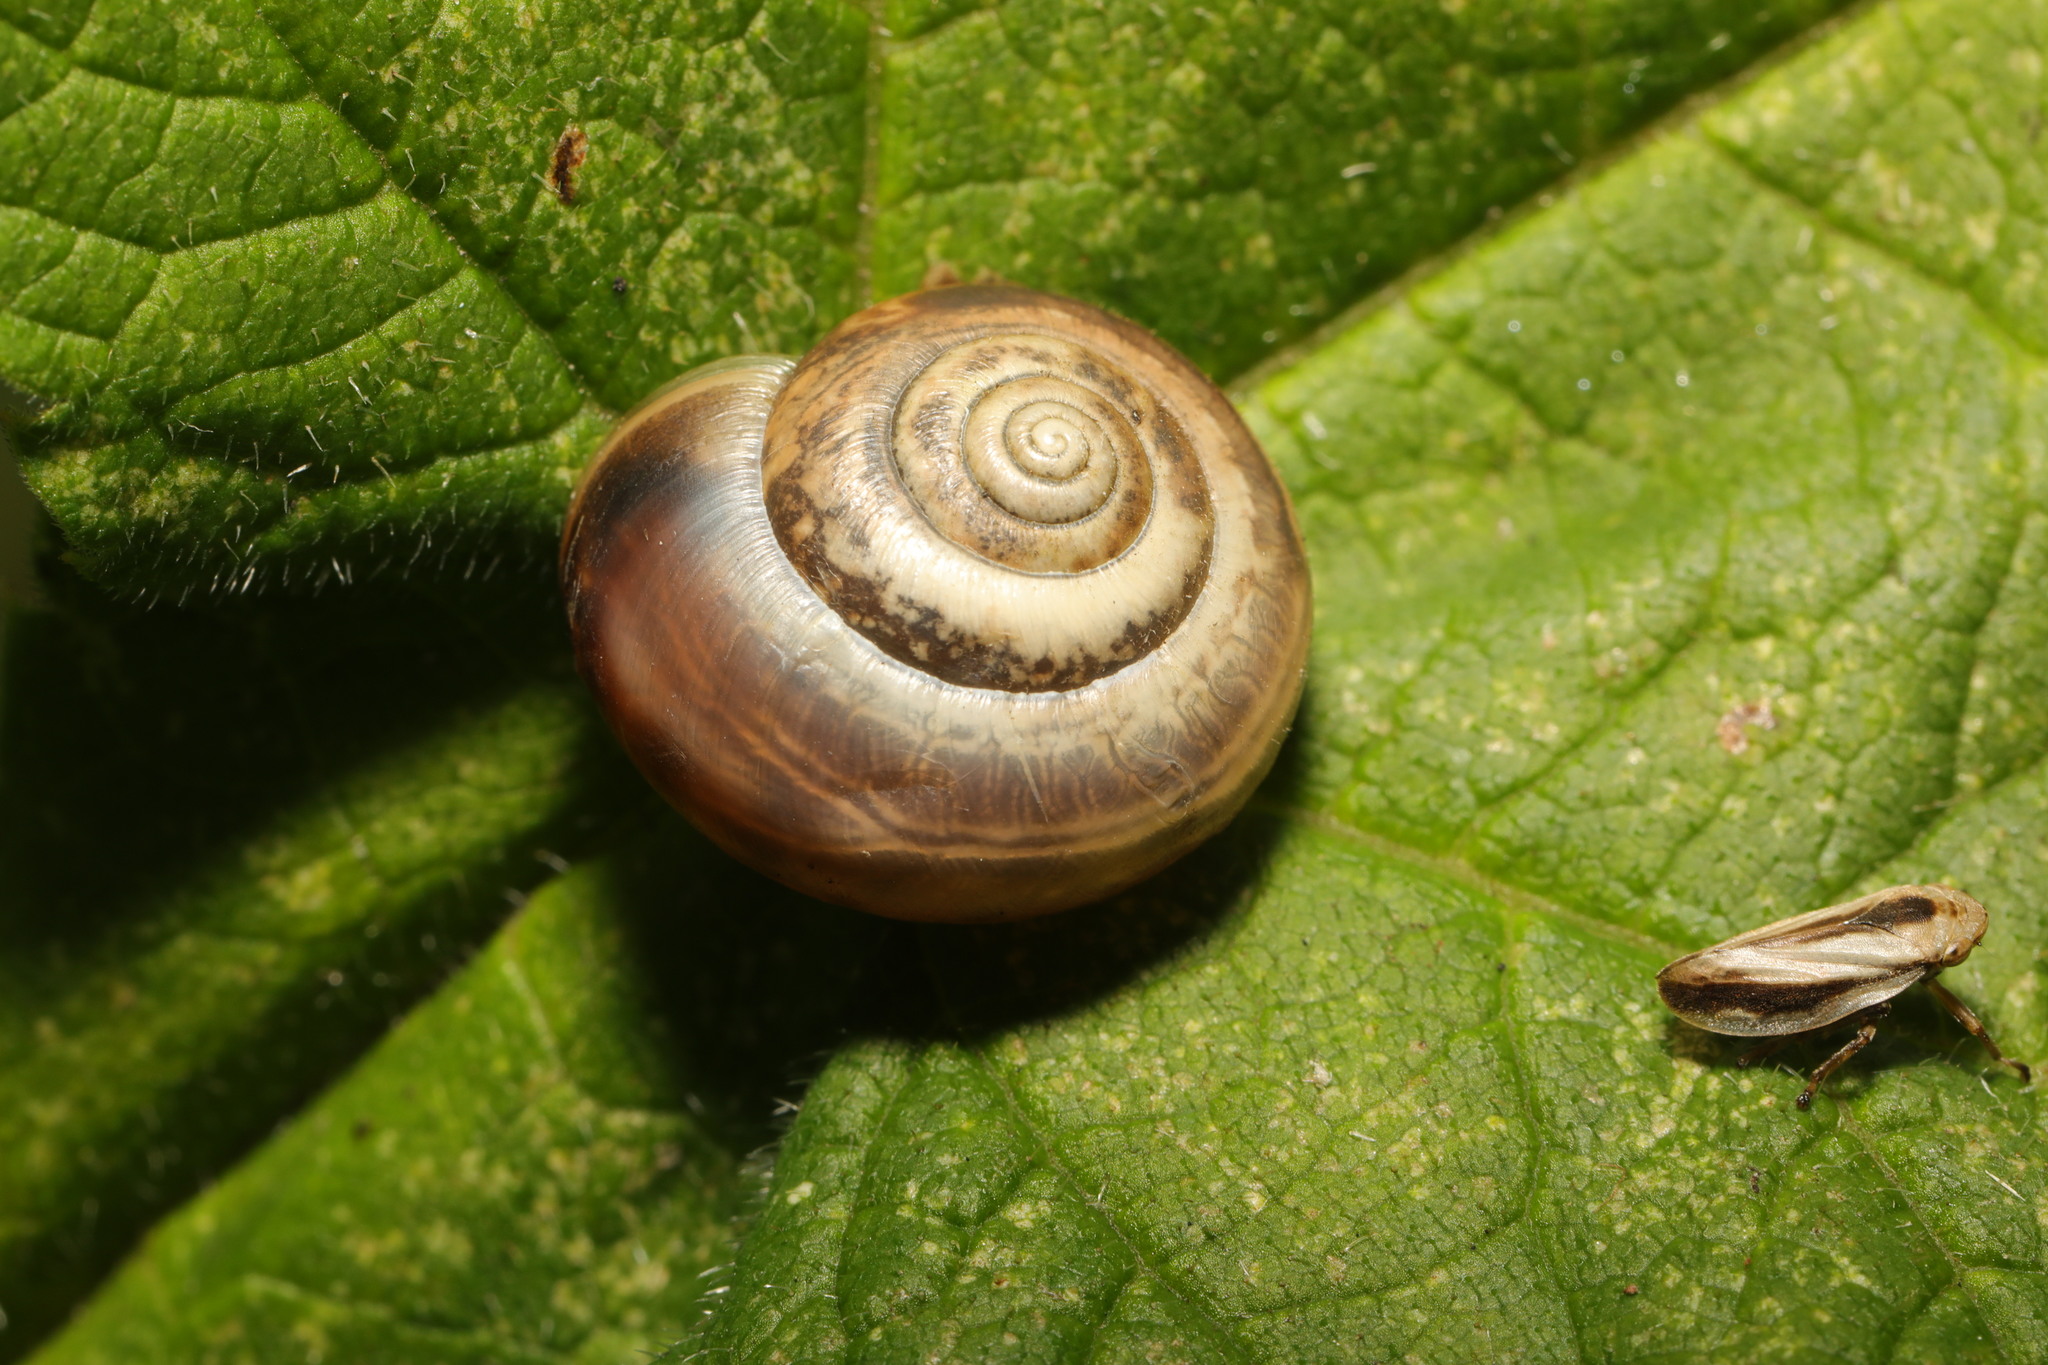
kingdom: Animalia
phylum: Mollusca
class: Gastropoda
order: Stylommatophora
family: Hygromiidae
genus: Monacha
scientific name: Monacha cantiana
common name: Kentish snail
